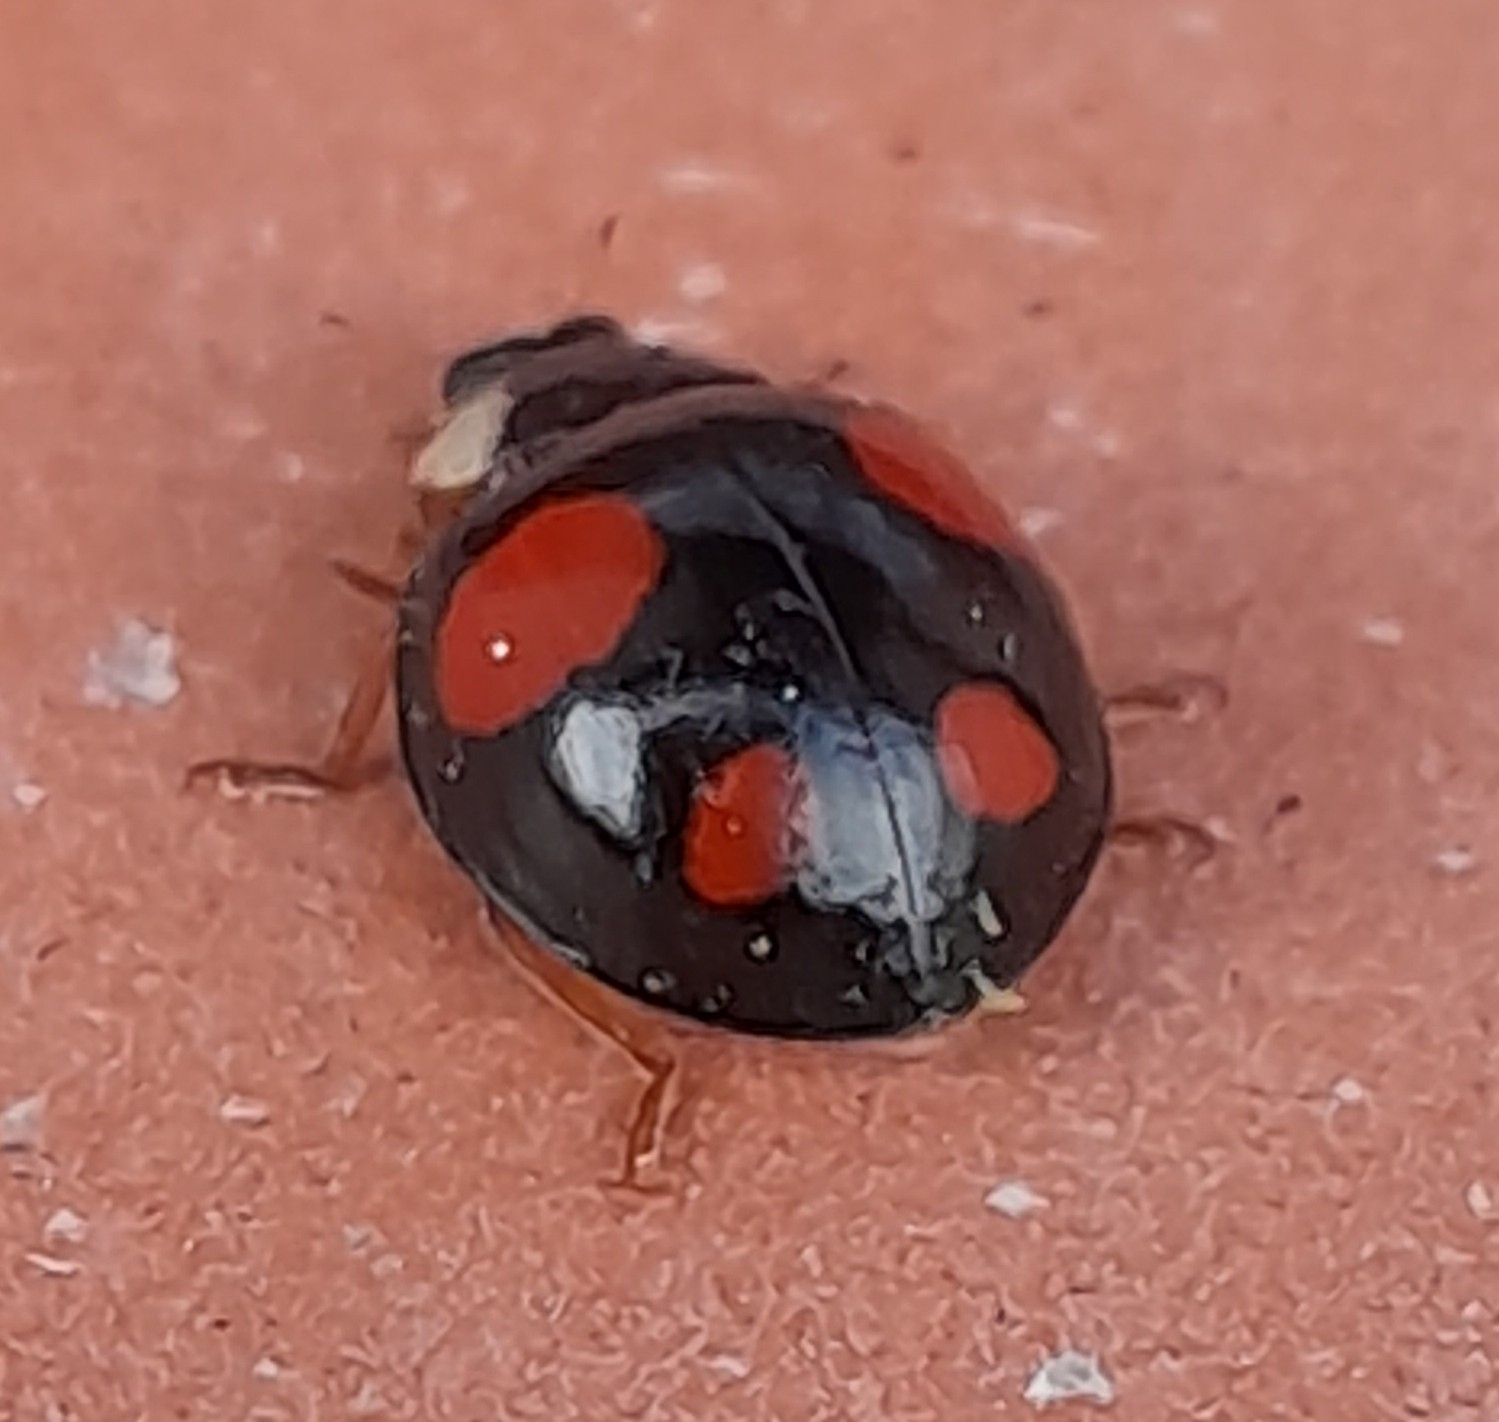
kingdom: Animalia
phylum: Arthropoda
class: Insecta
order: Coleoptera
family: Coccinellidae
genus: Harmonia
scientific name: Harmonia axyridis
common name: Harlequin ladybird
